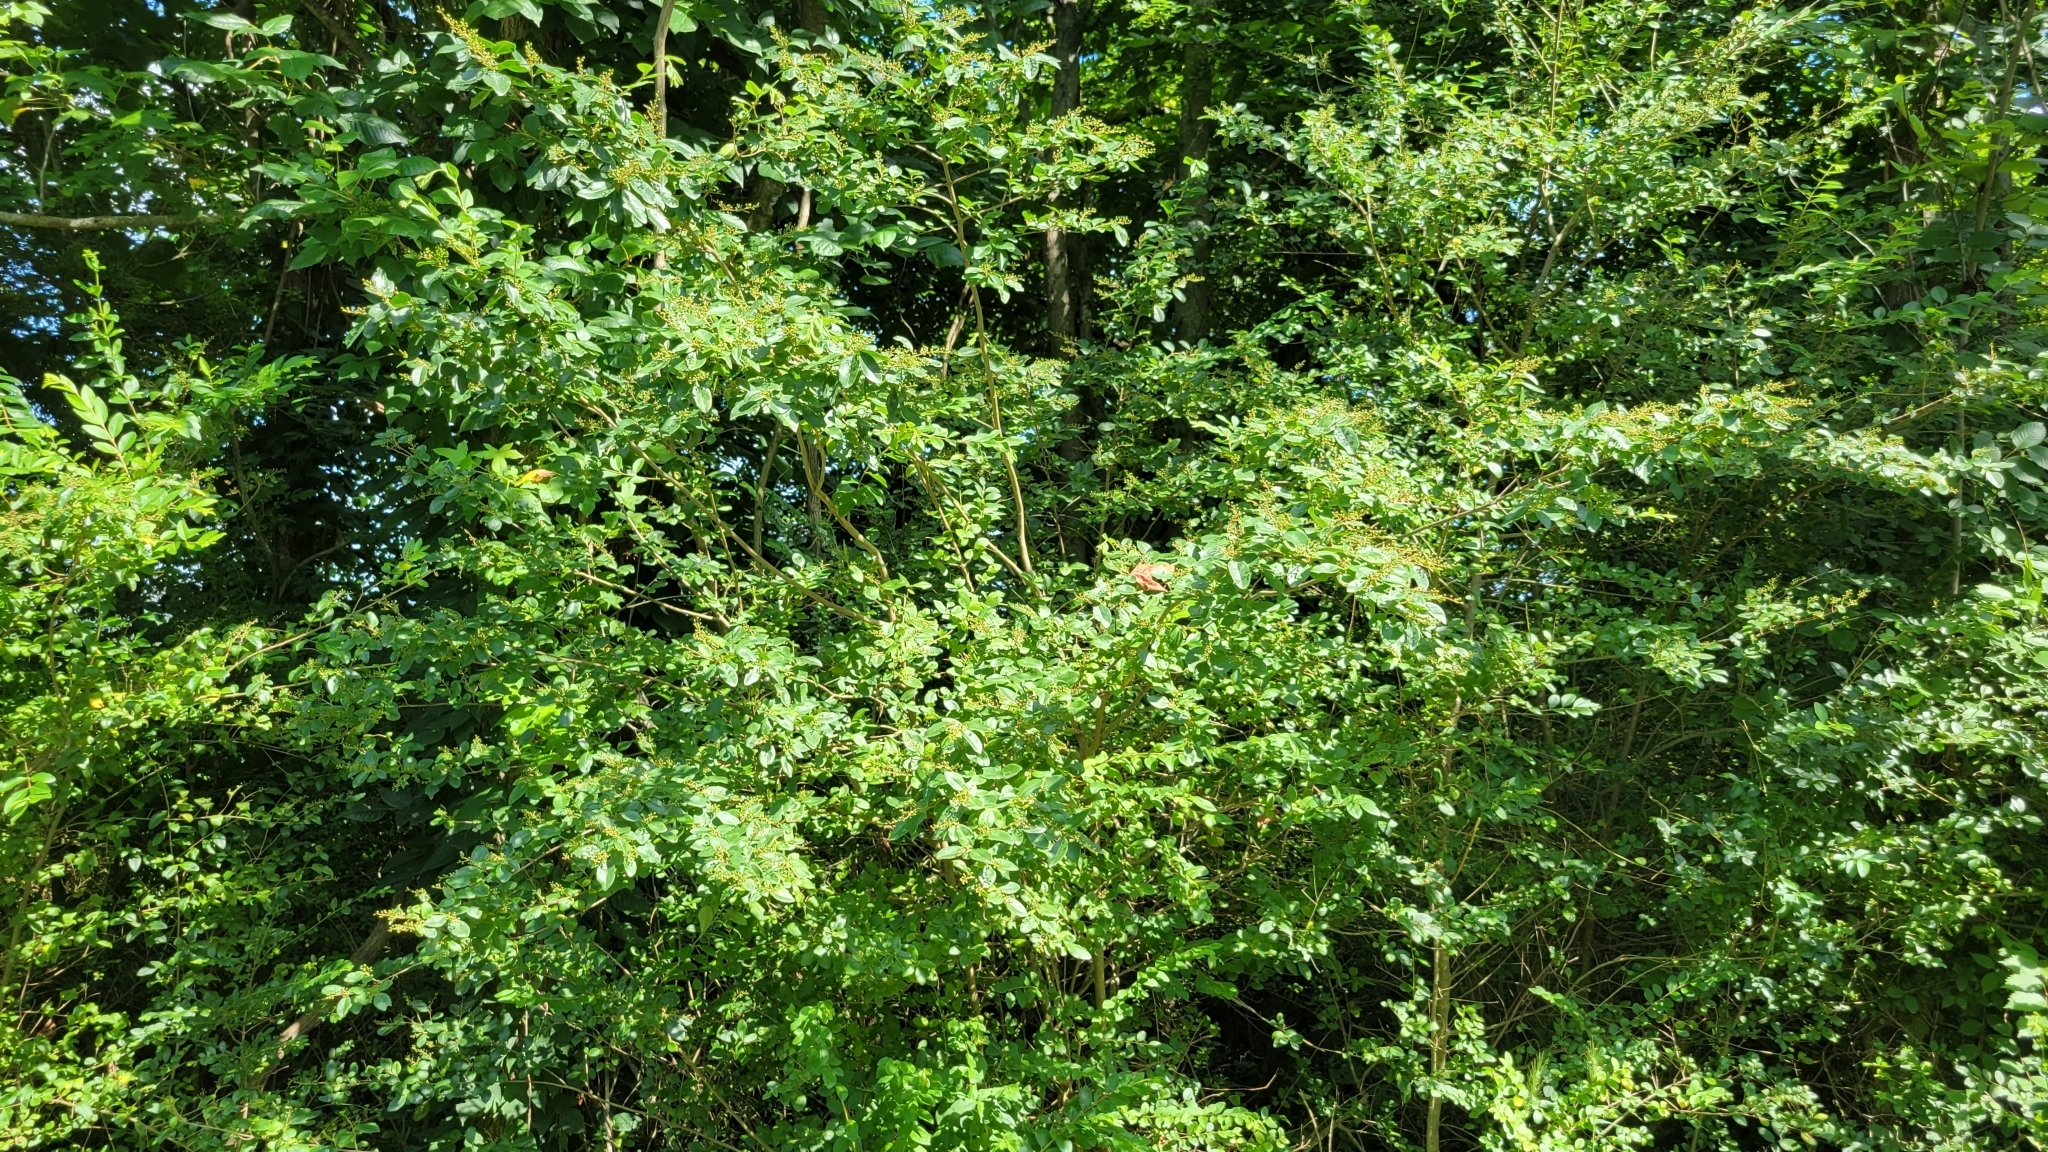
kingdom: Plantae
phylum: Tracheophyta
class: Magnoliopsida
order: Lamiales
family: Oleaceae
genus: Ligustrum
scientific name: Ligustrum sinense
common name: Chinese privet
